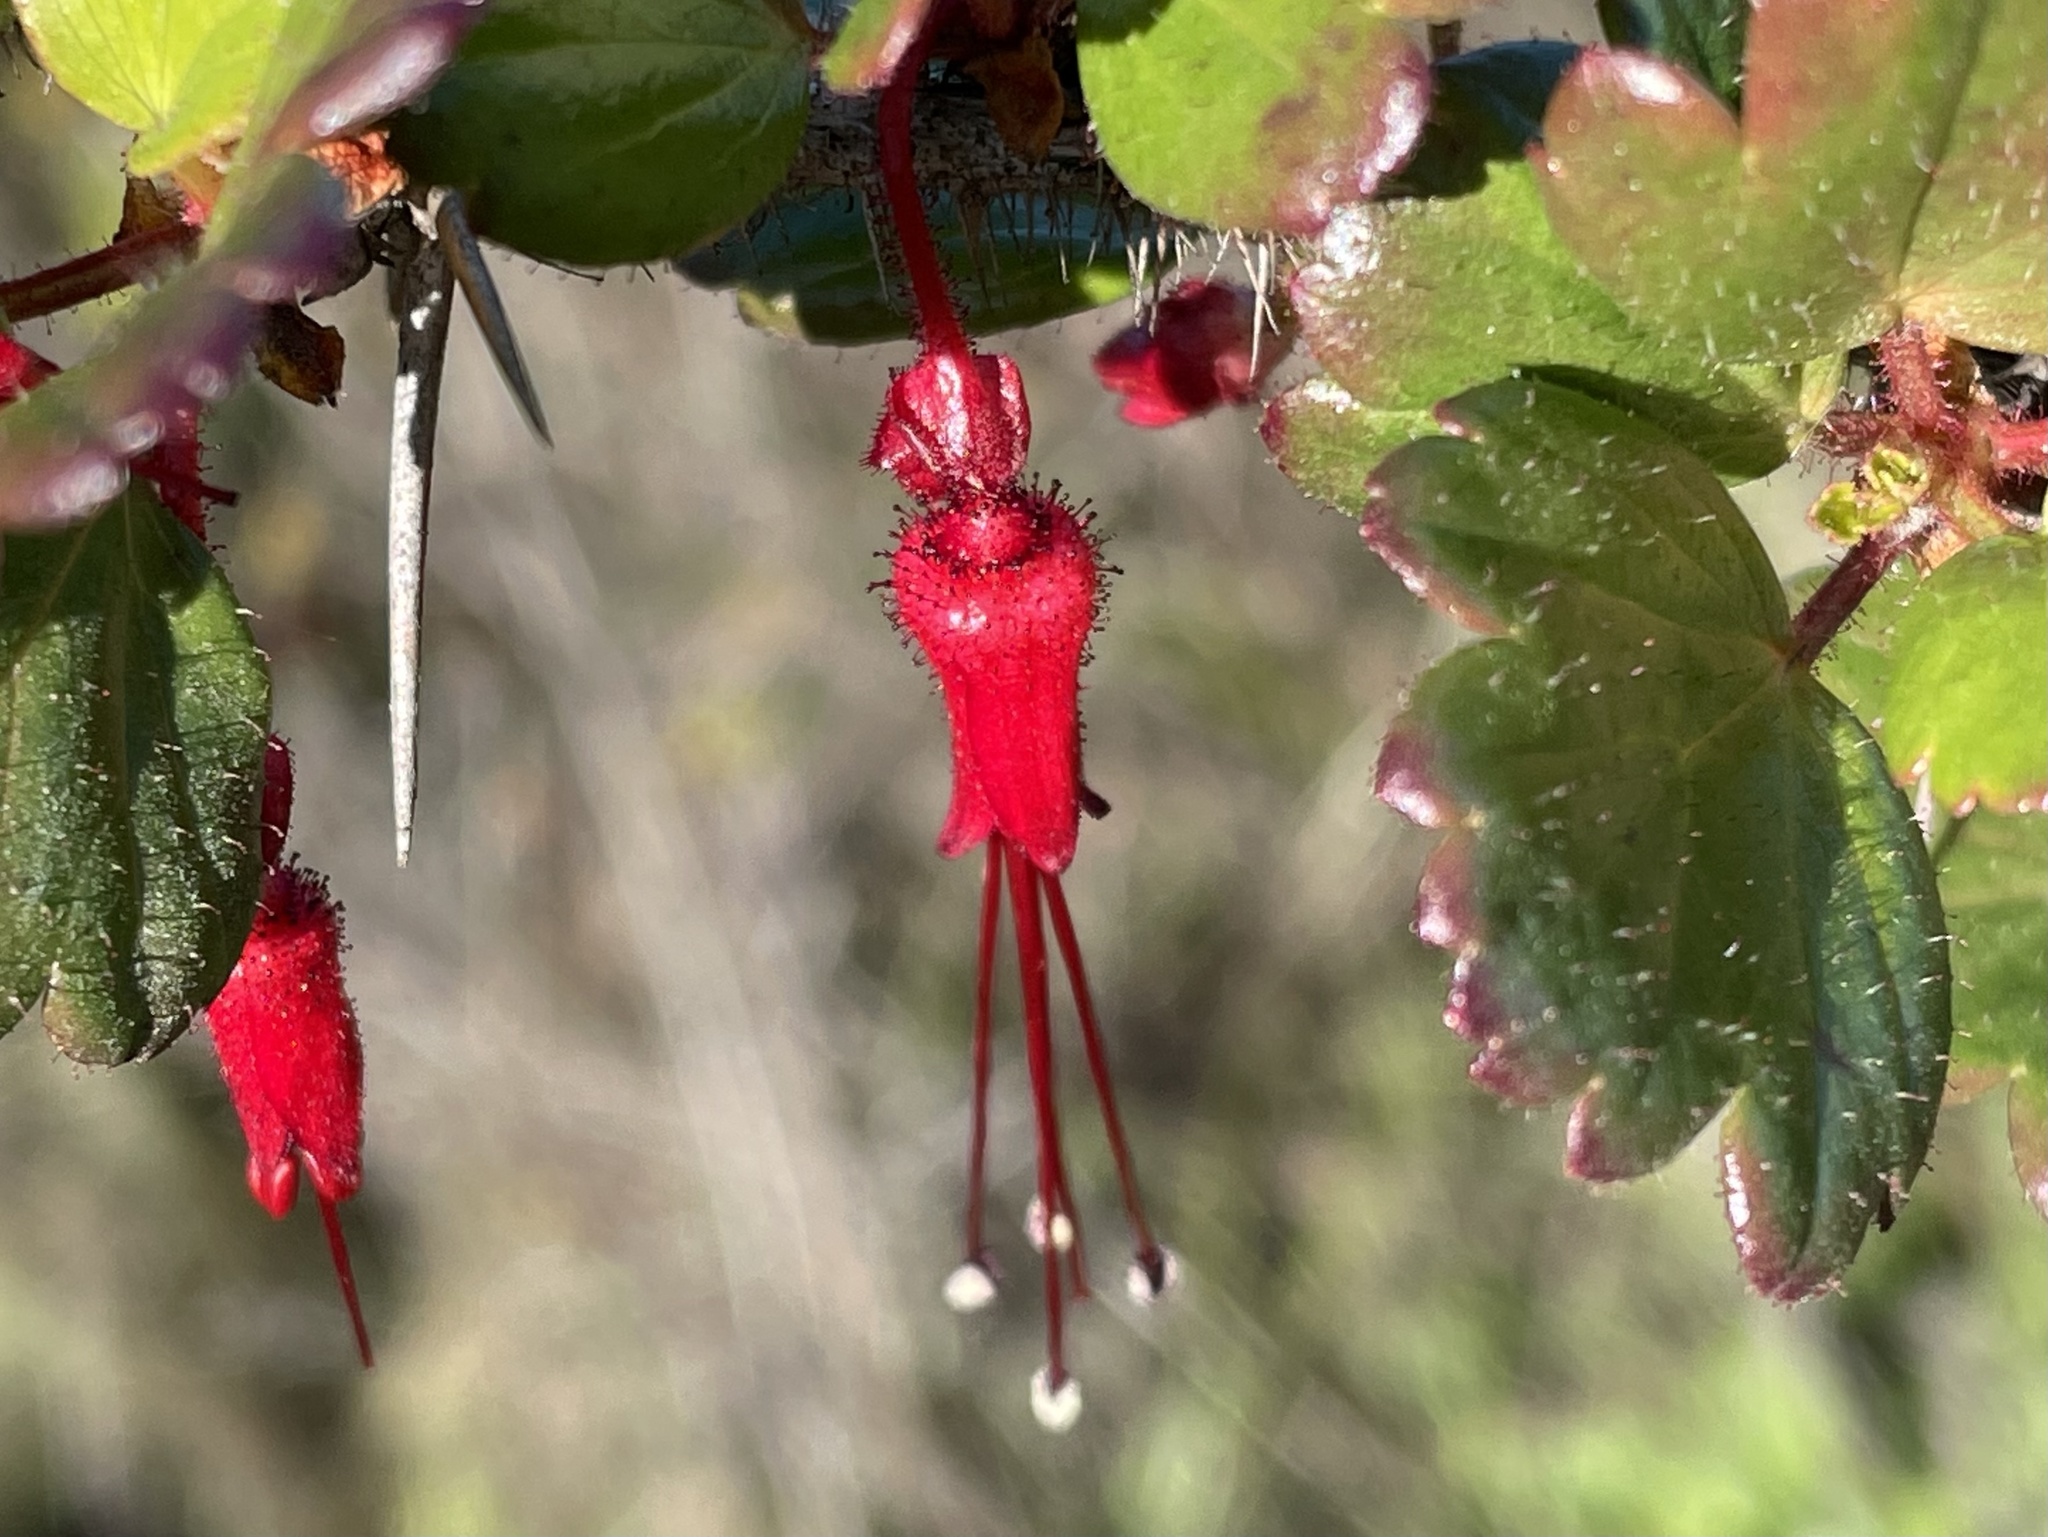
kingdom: Plantae
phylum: Tracheophyta
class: Magnoliopsida
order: Saxifragales
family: Grossulariaceae
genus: Ribes
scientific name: Ribes speciosum
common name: Fuchsia-flower gooseberry
